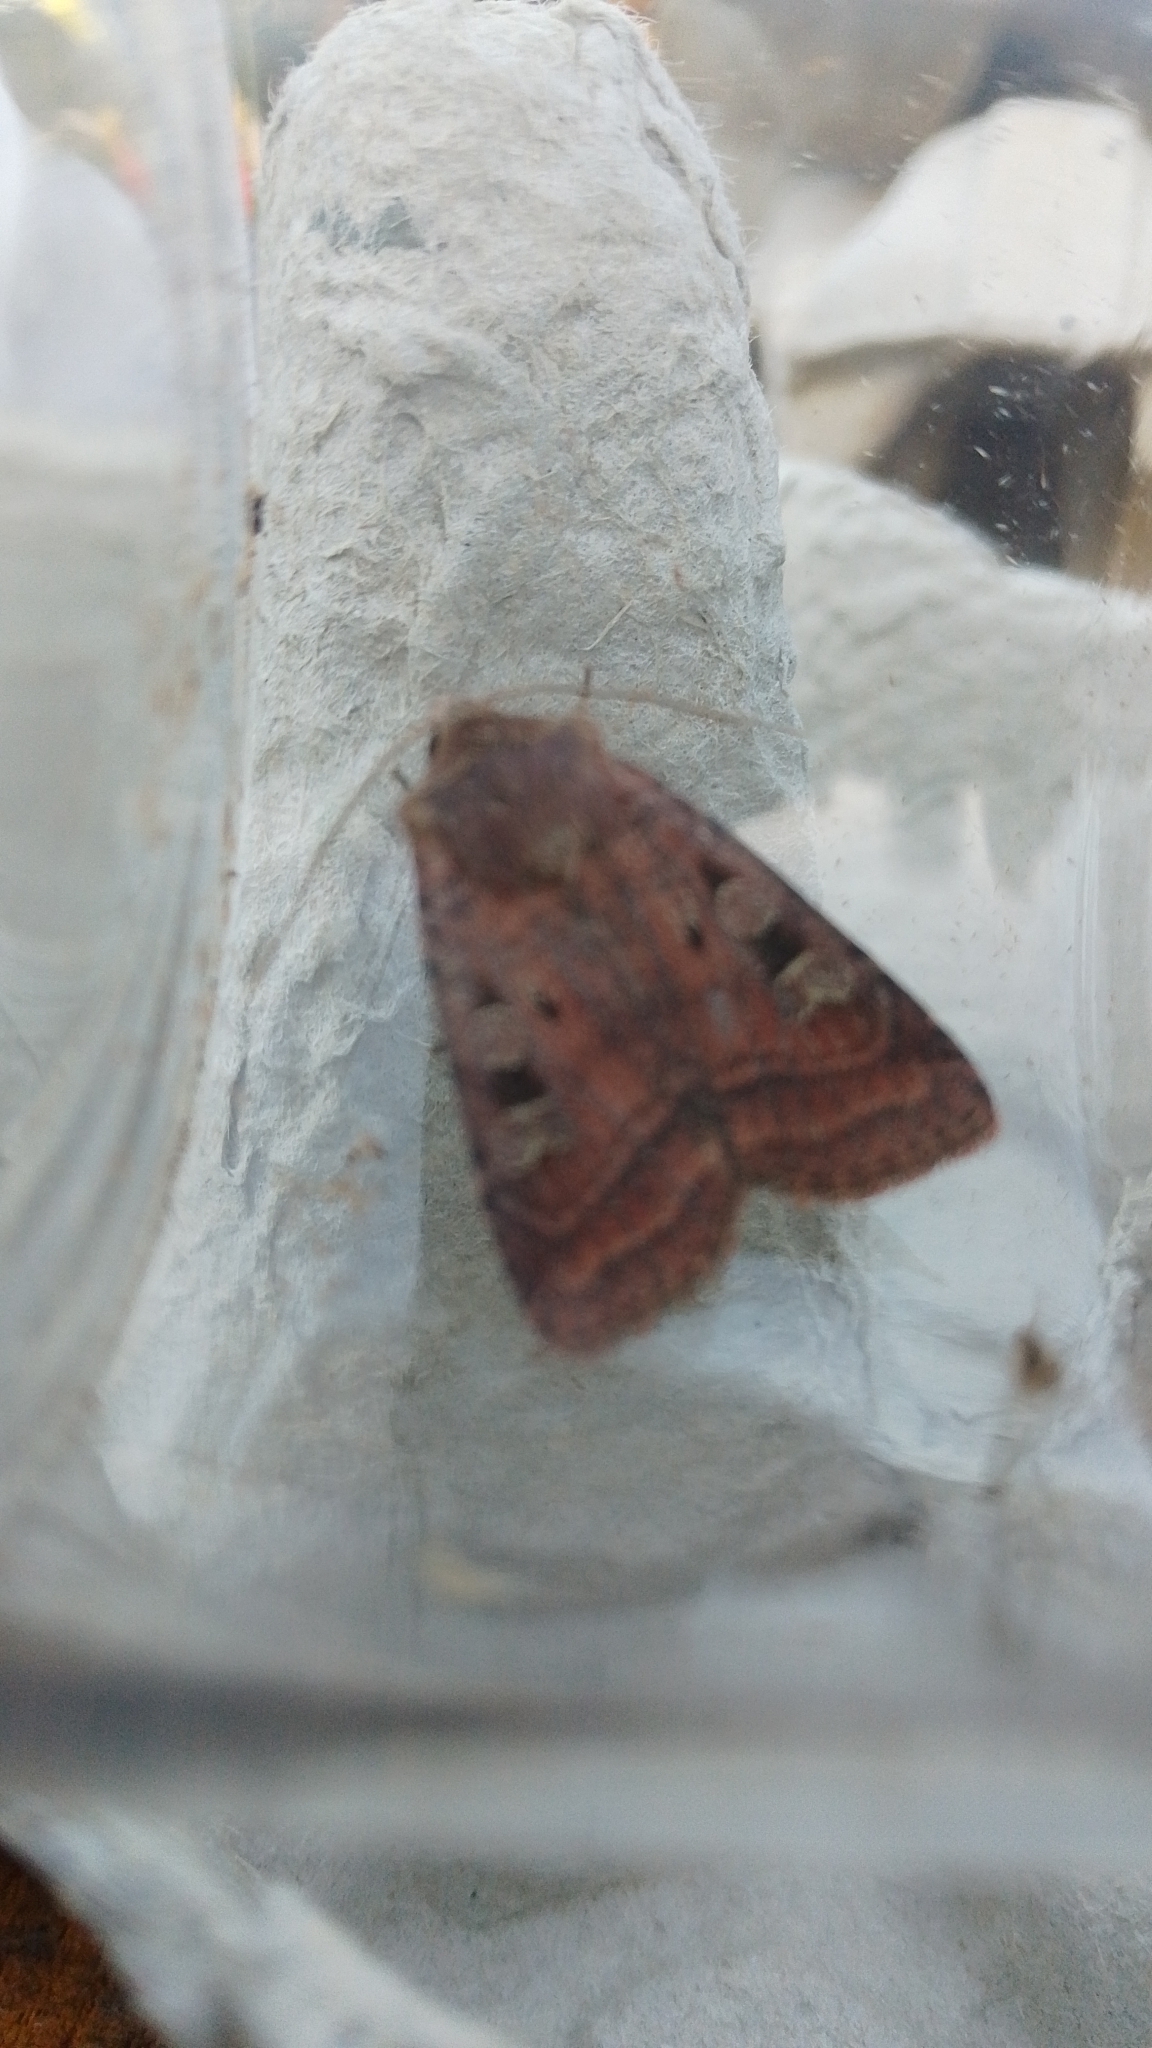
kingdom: Animalia
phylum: Arthropoda
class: Insecta
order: Lepidoptera
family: Noctuidae
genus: Diarsia
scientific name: Diarsia rubi
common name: Small square-spot
